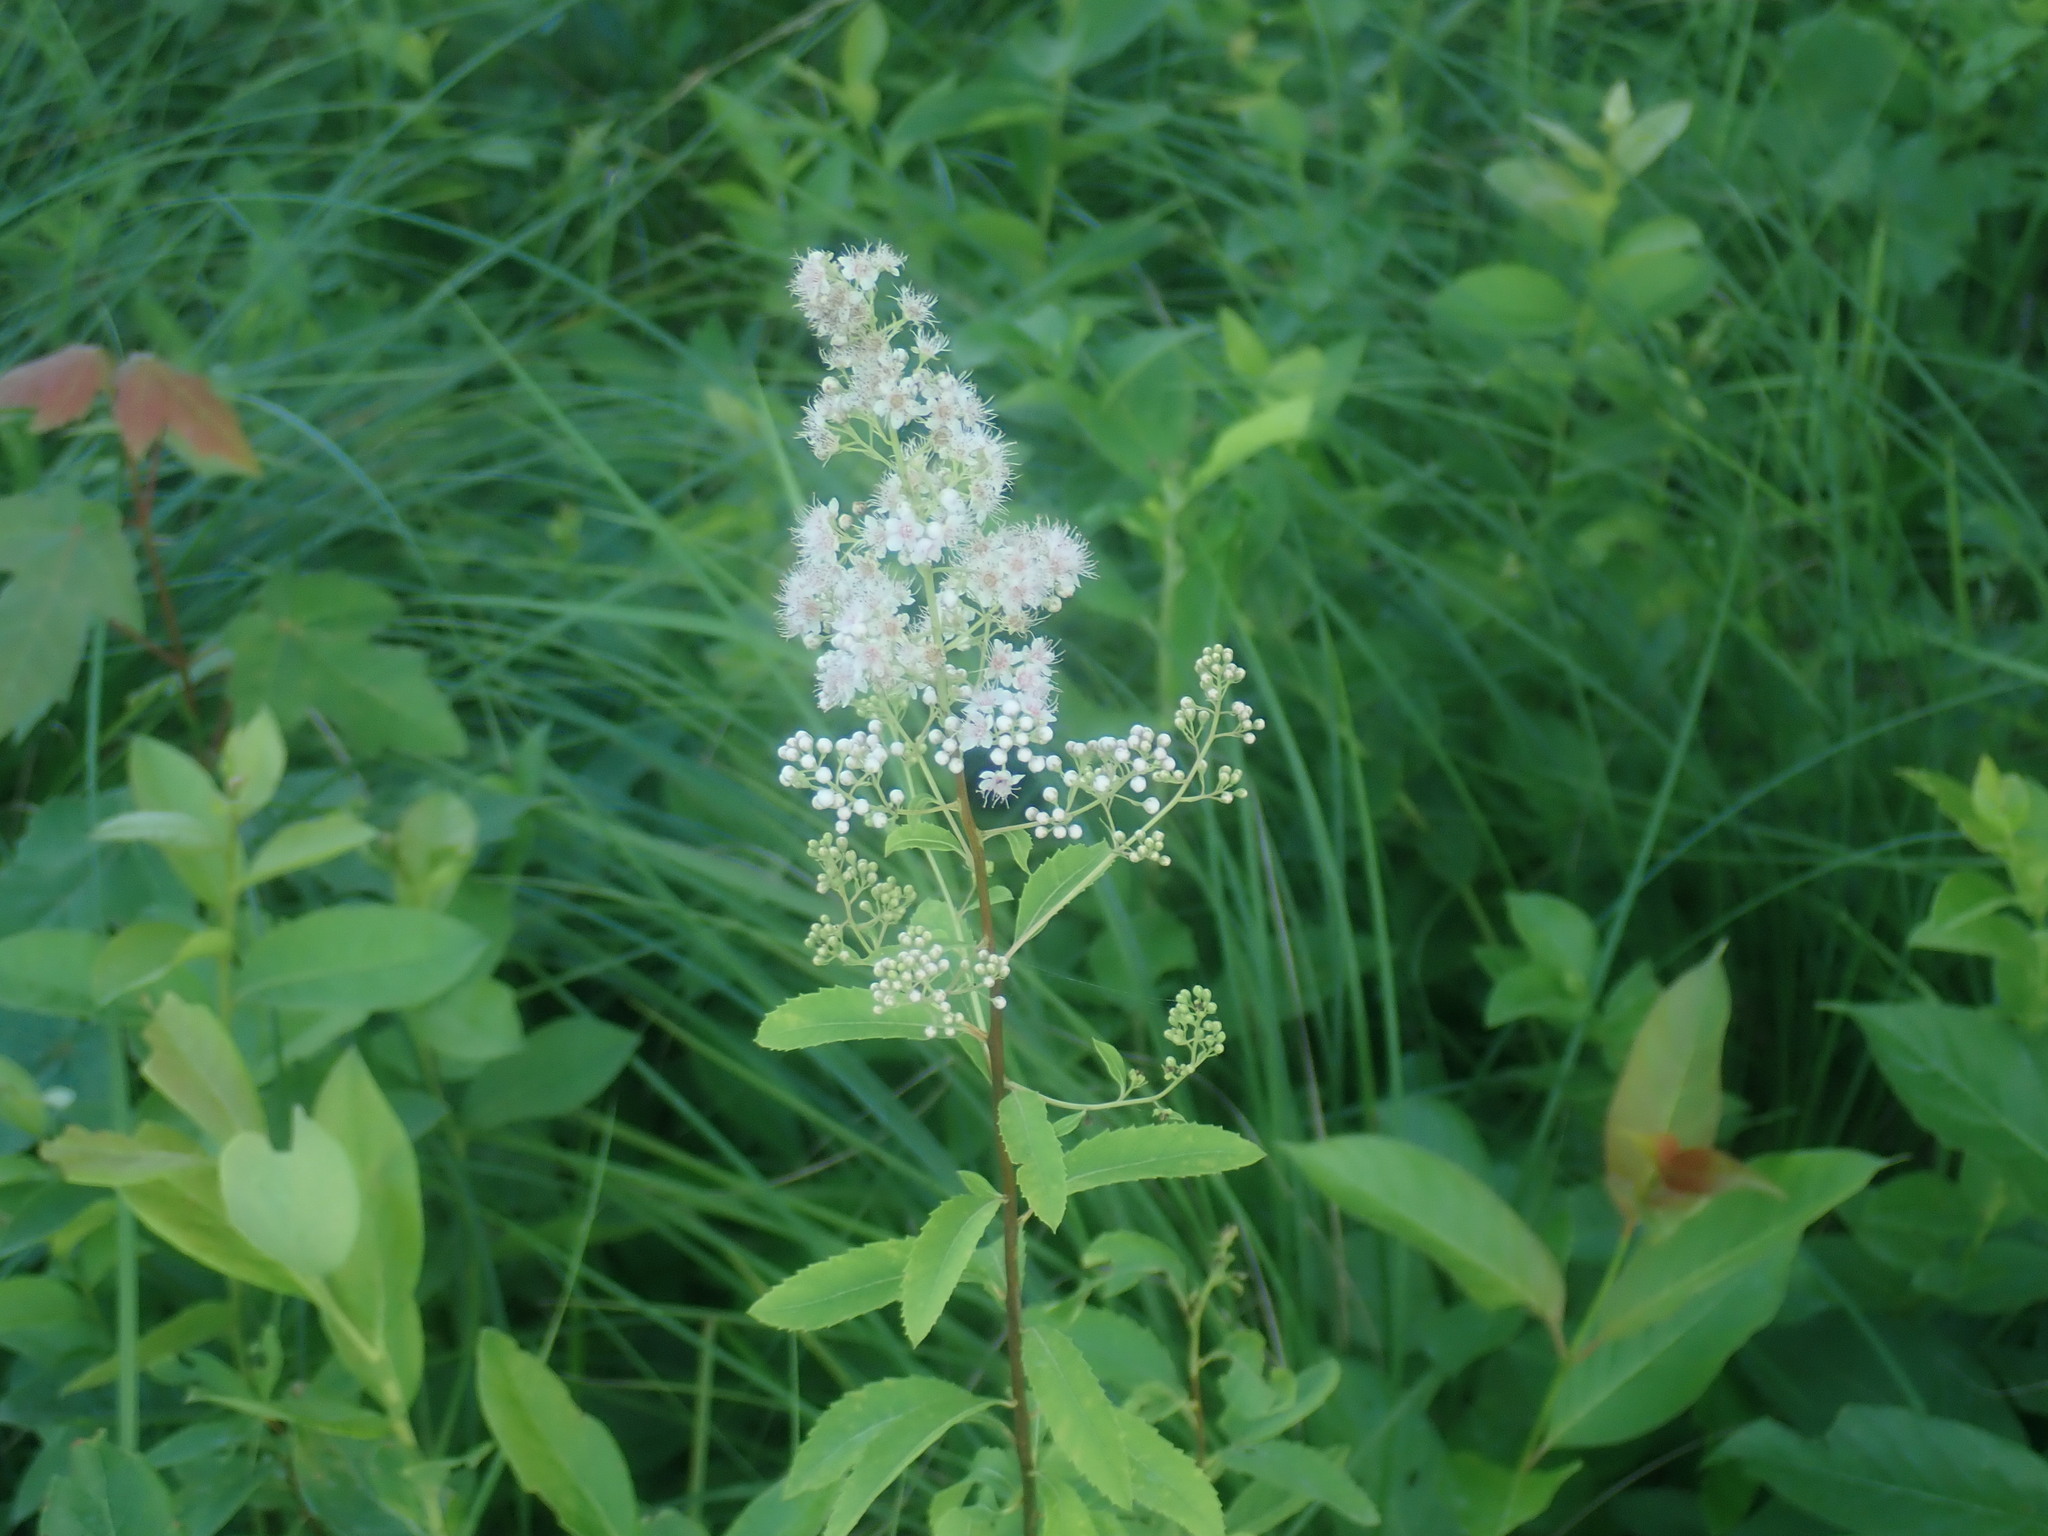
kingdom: Plantae
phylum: Tracheophyta
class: Magnoliopsida
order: Rosales
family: Rosaceae
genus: Spiraea
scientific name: Spiraea alba
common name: Pale bridewort
